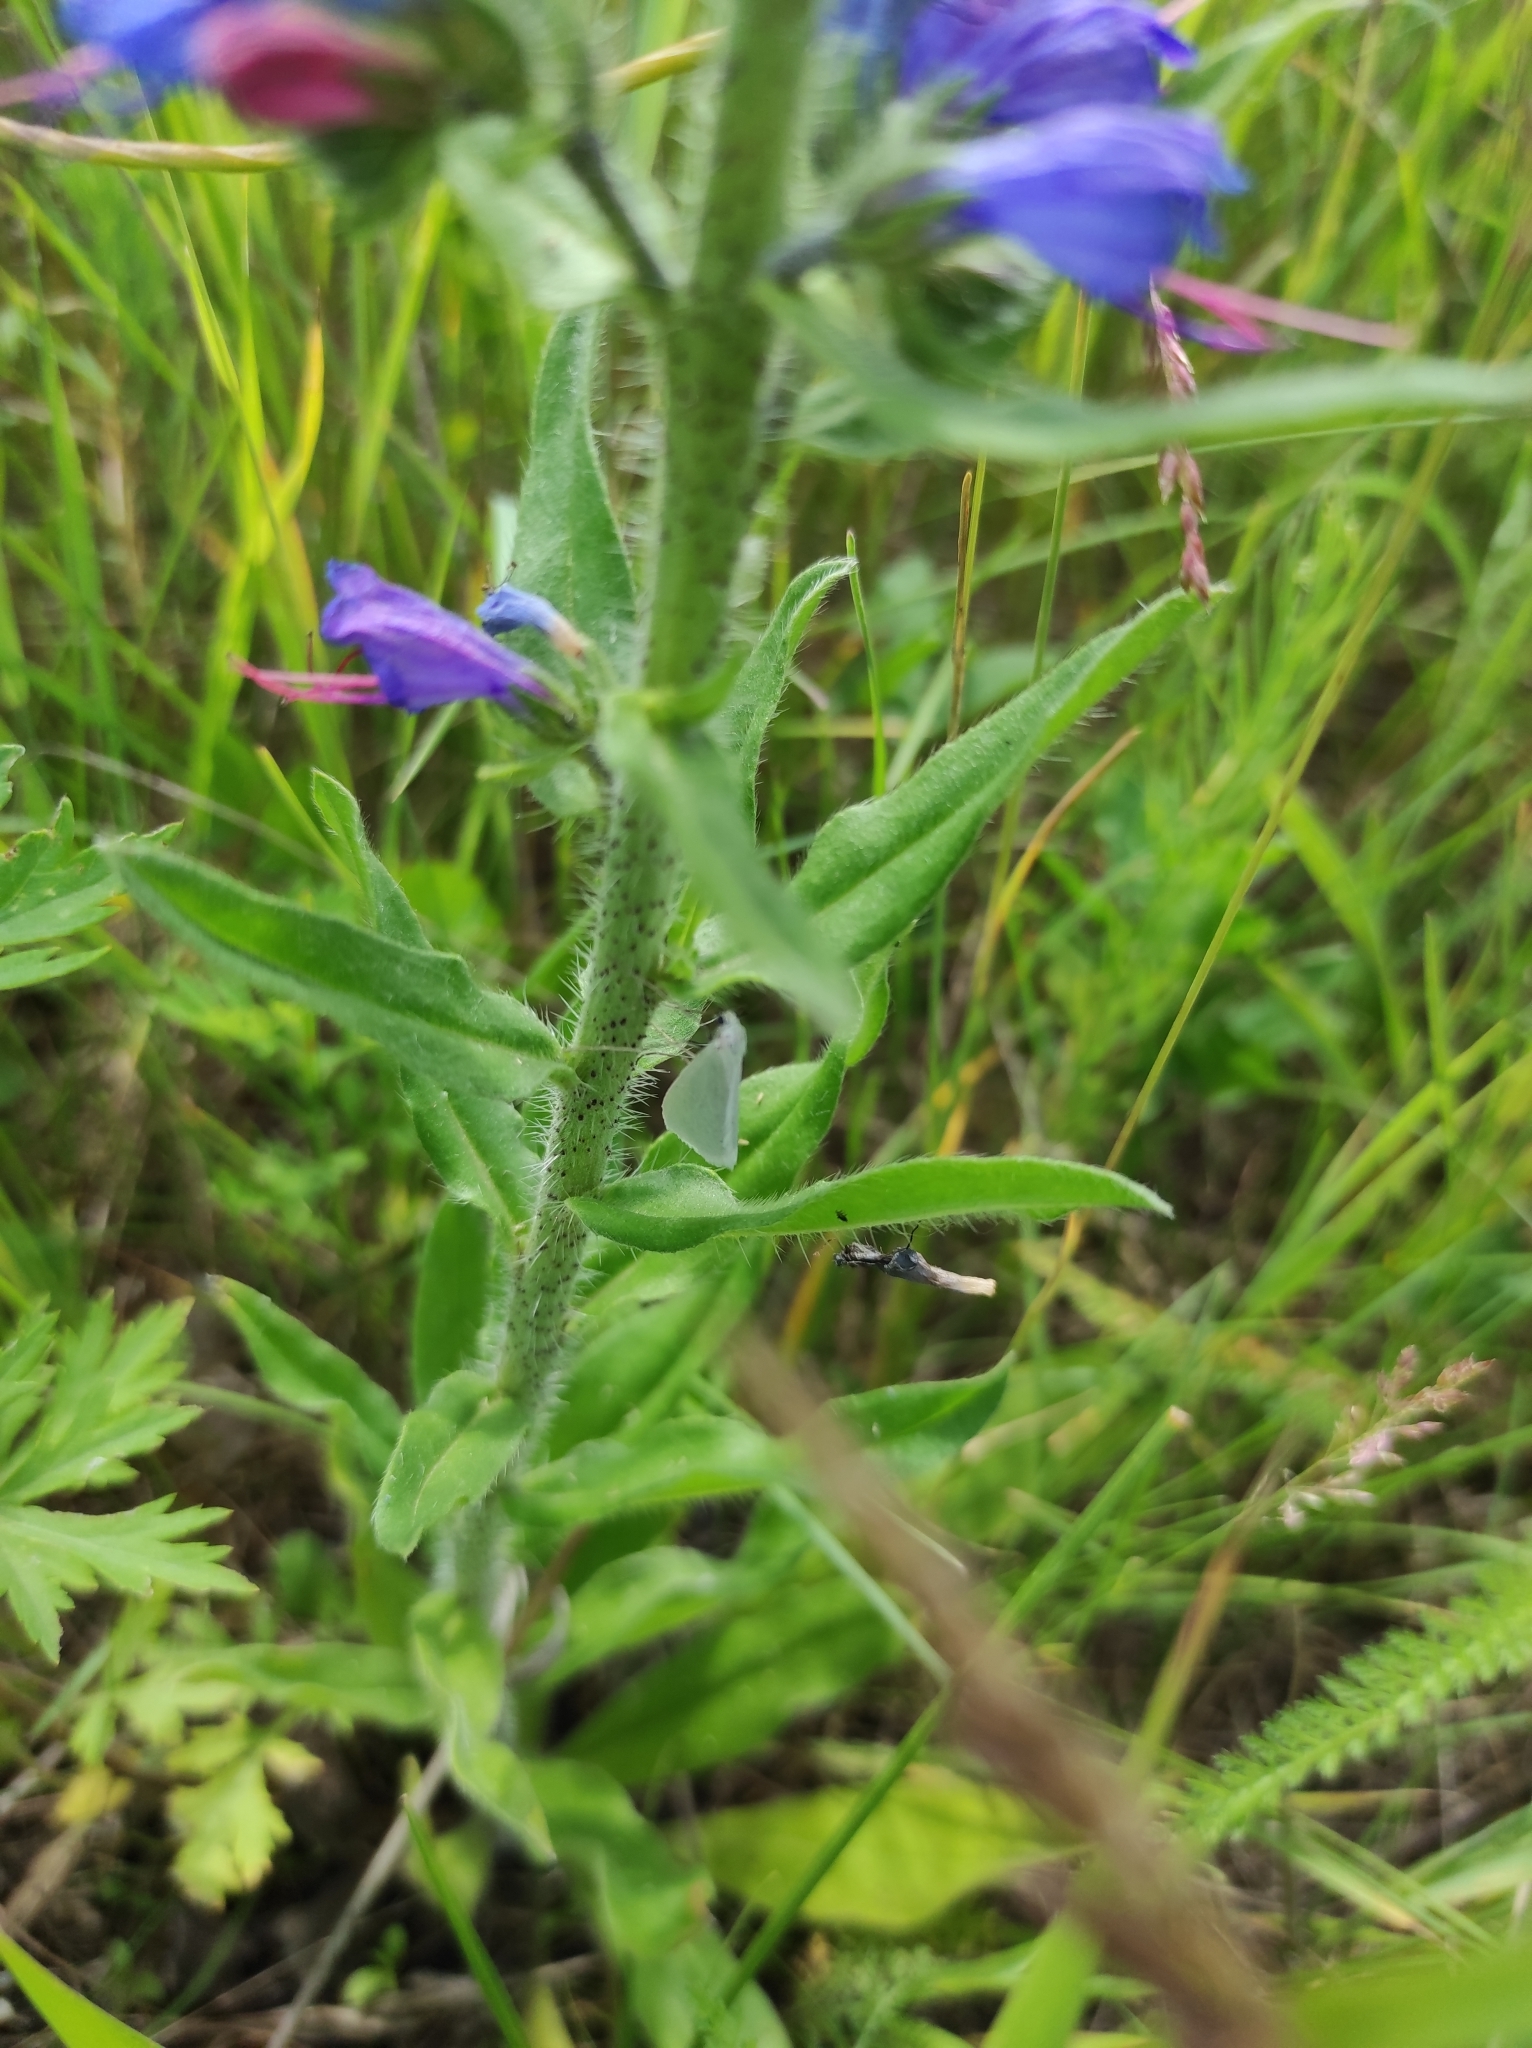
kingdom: Animalia
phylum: Arthropoda
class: Insecta
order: Lepidoptera
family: Geometridae
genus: Gypsochroa
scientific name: Gypsochroa renitidata
